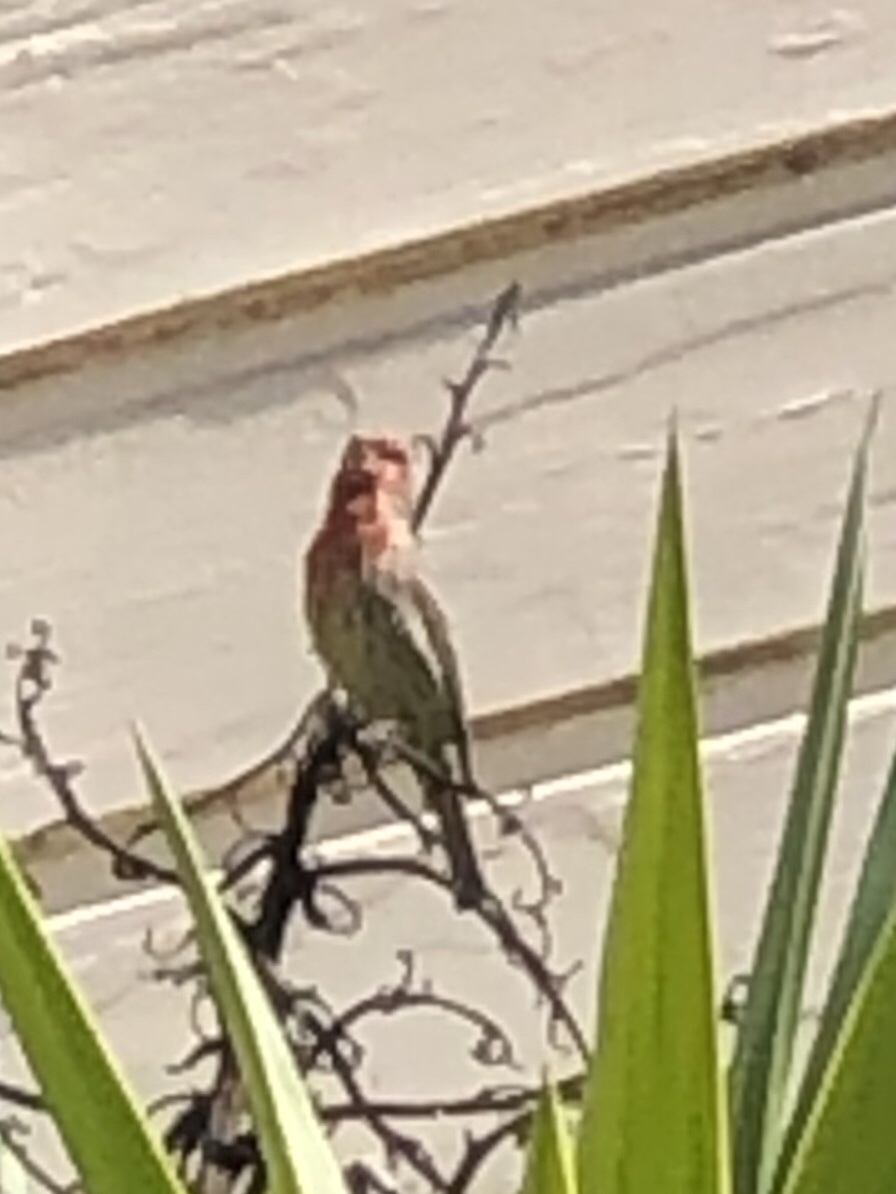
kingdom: Animalia
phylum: Chordata
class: Aves
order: Passeriformes
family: Fringillidae
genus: Haemorhous
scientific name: Haemorhous mexicanus
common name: House finch
